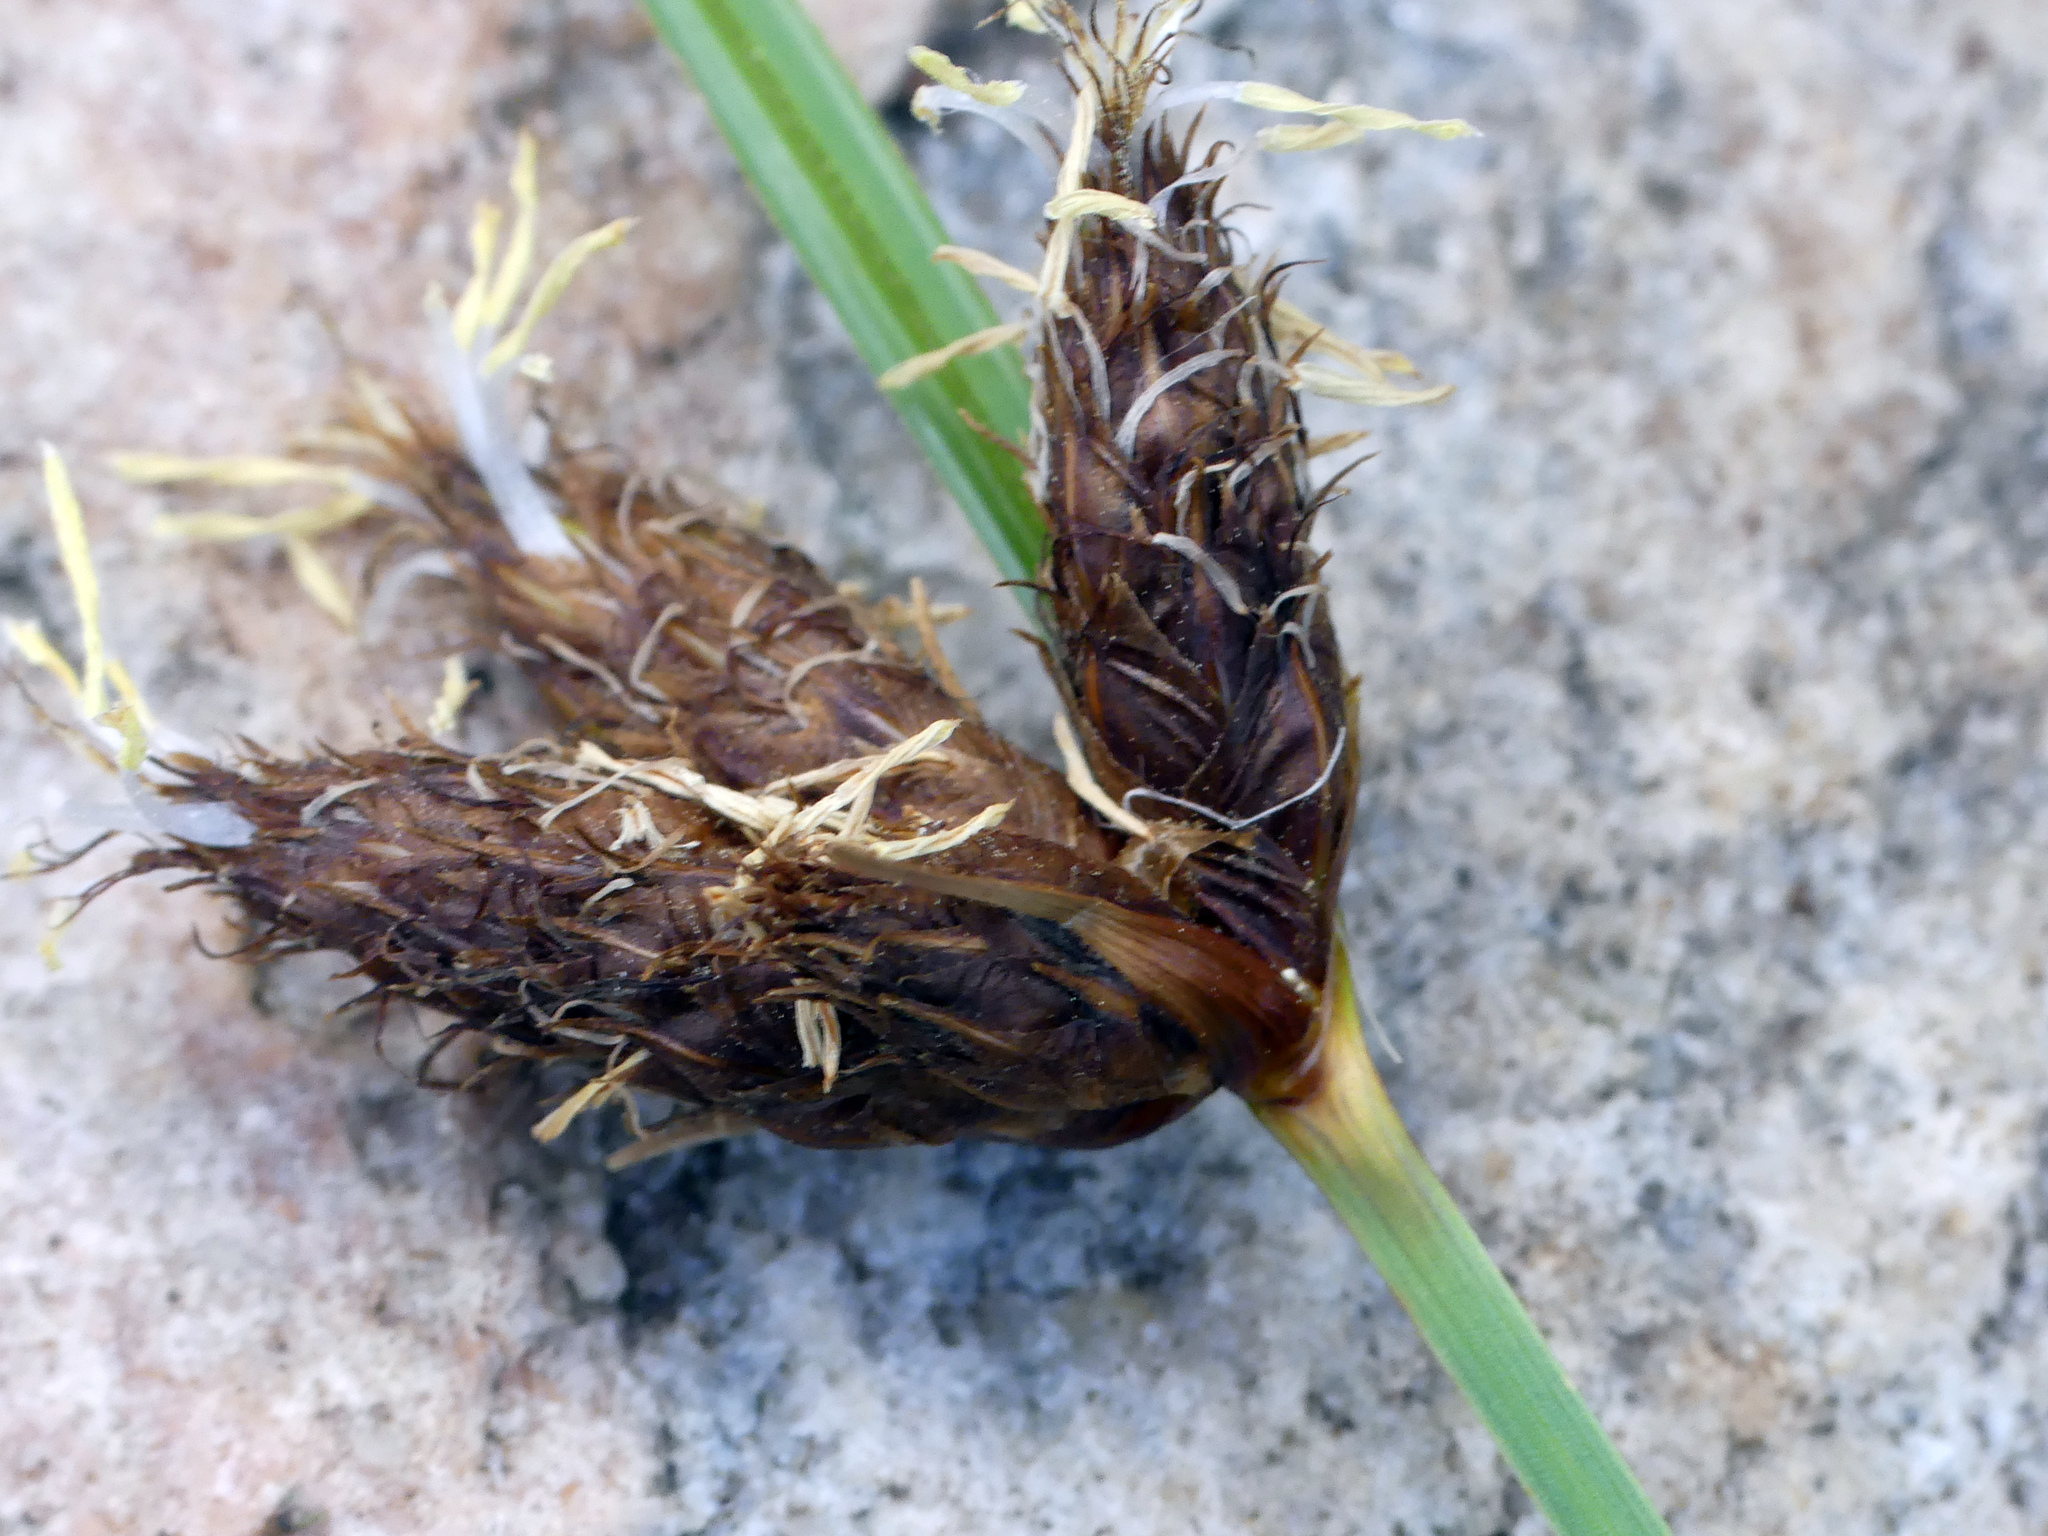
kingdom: Plantae
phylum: Tracheophyta
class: Liliopsida
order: Poales
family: Cyperaceae
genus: Bolboschoenus
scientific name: Bolboschoenus maritimus
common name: Sea club-rush
